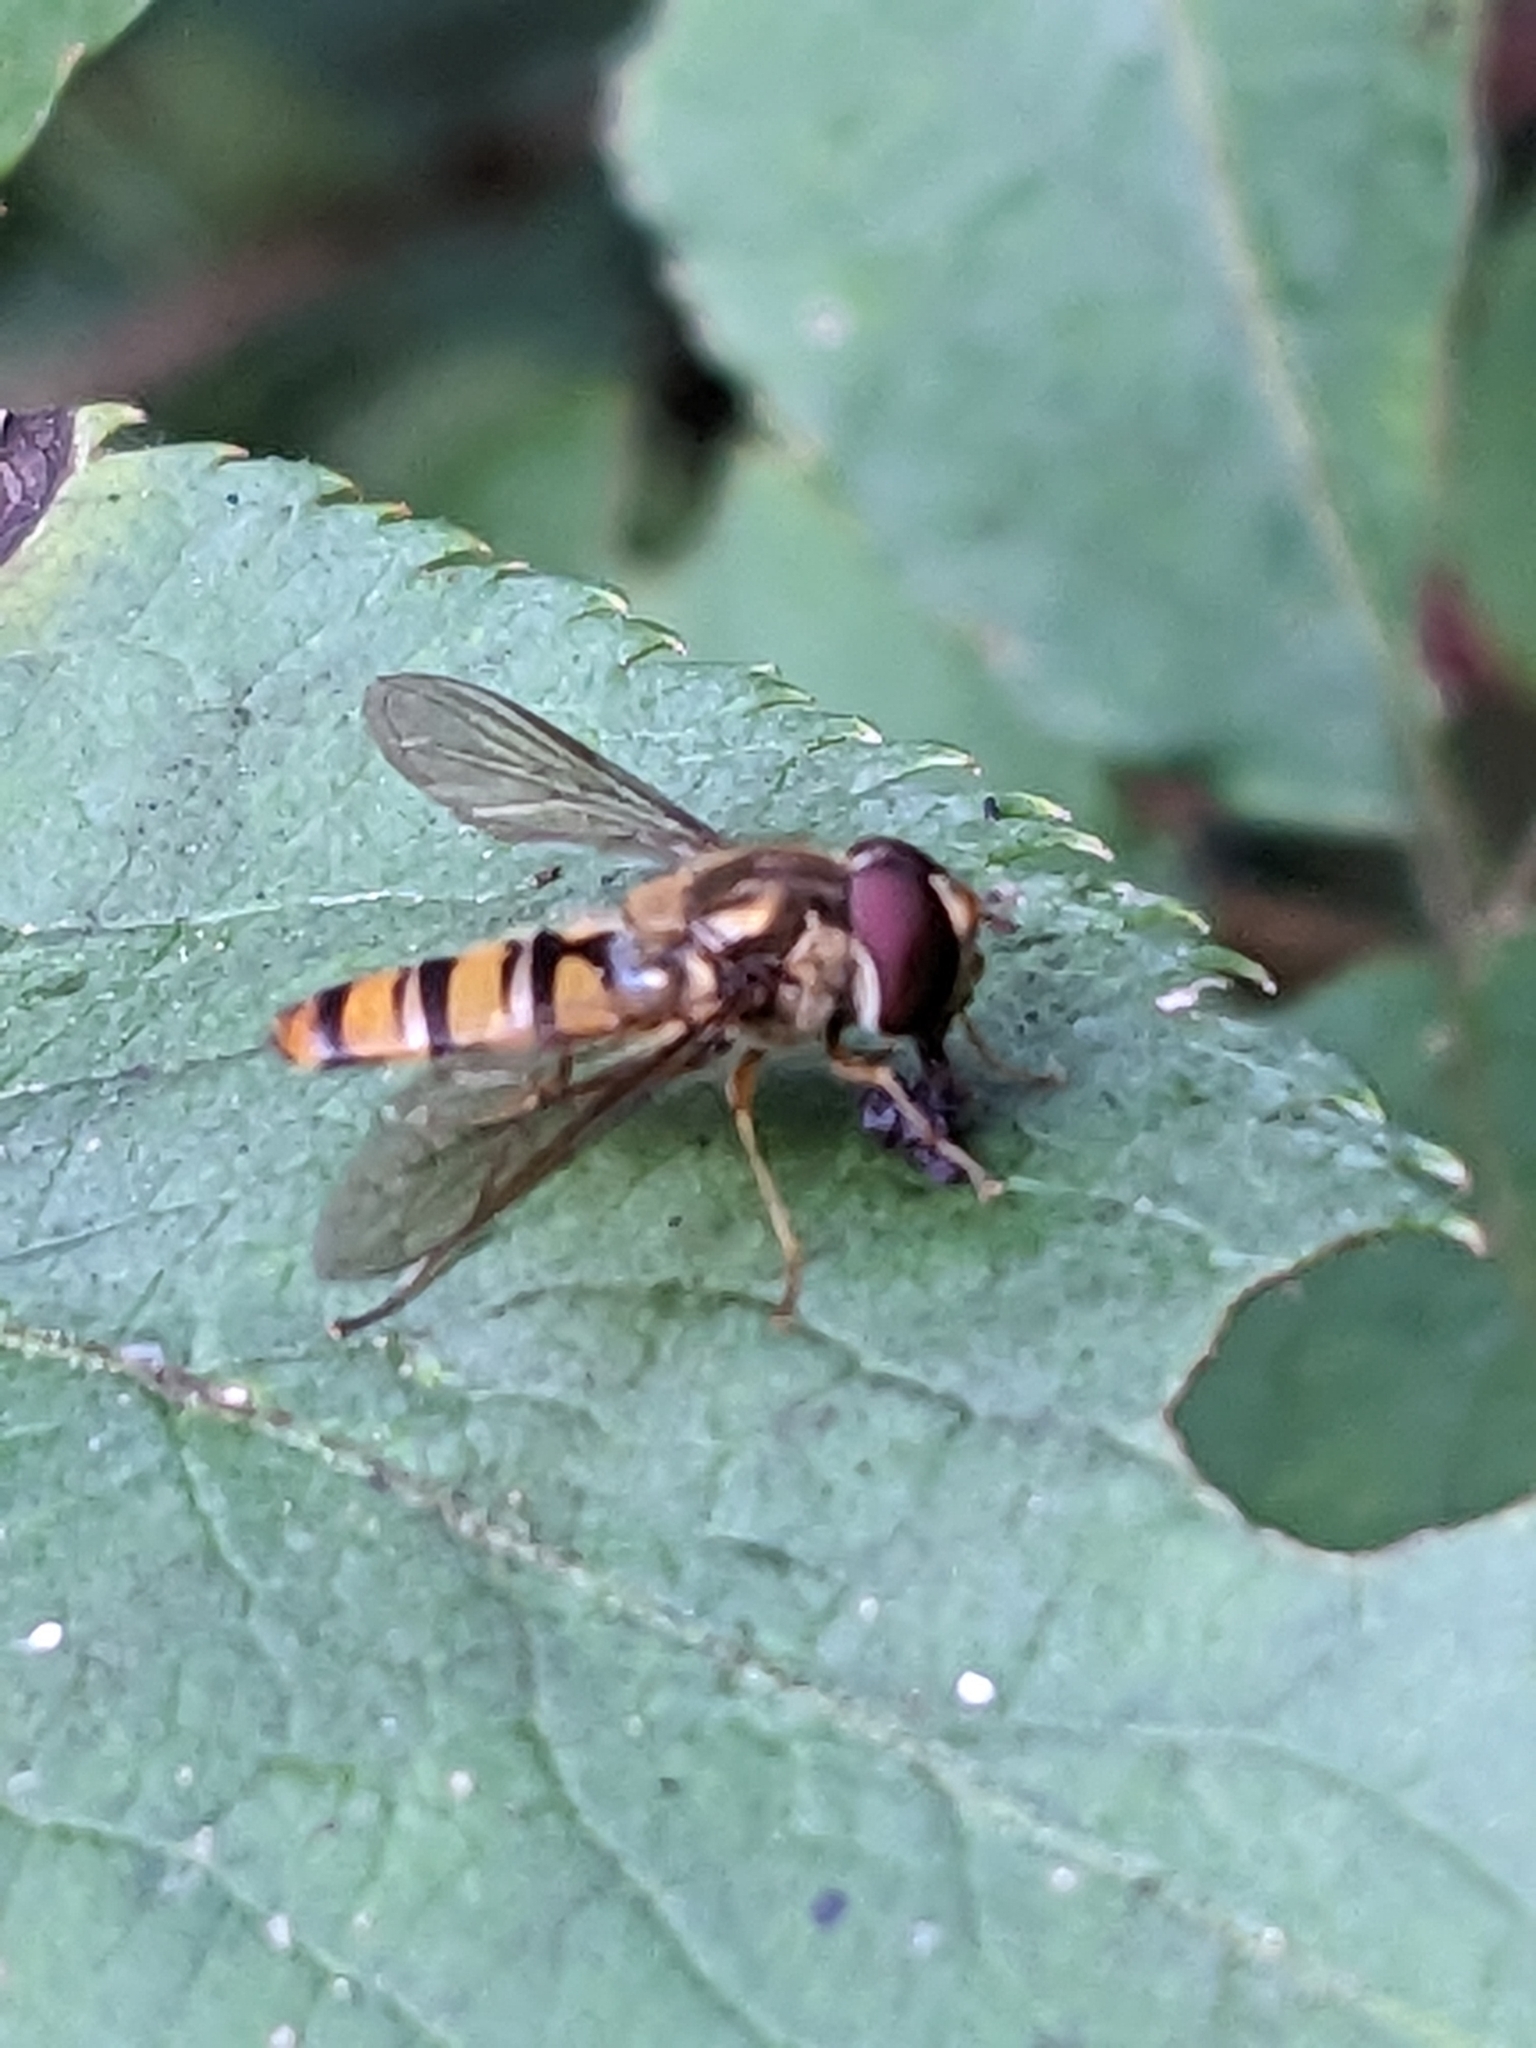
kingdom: Animalia
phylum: Arthropoda
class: Insecta
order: Diptera
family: Syrphidae
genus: Episyrphus
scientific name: Episyrphus balteatus
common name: Marmalade hoverfly
